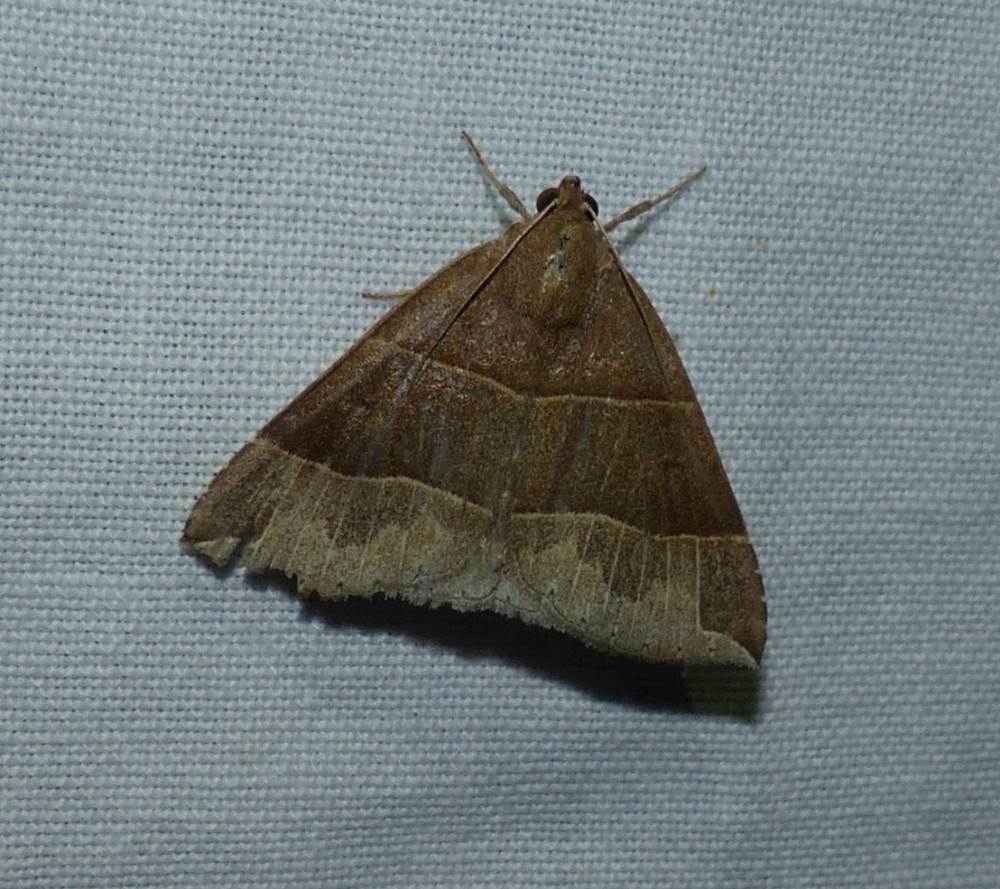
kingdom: Animalia
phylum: Arthropoda
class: Insecta
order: Lepidoptera
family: Erebidae
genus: Parallelia
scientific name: Parallelia bistriaris
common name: Maple looper moth
